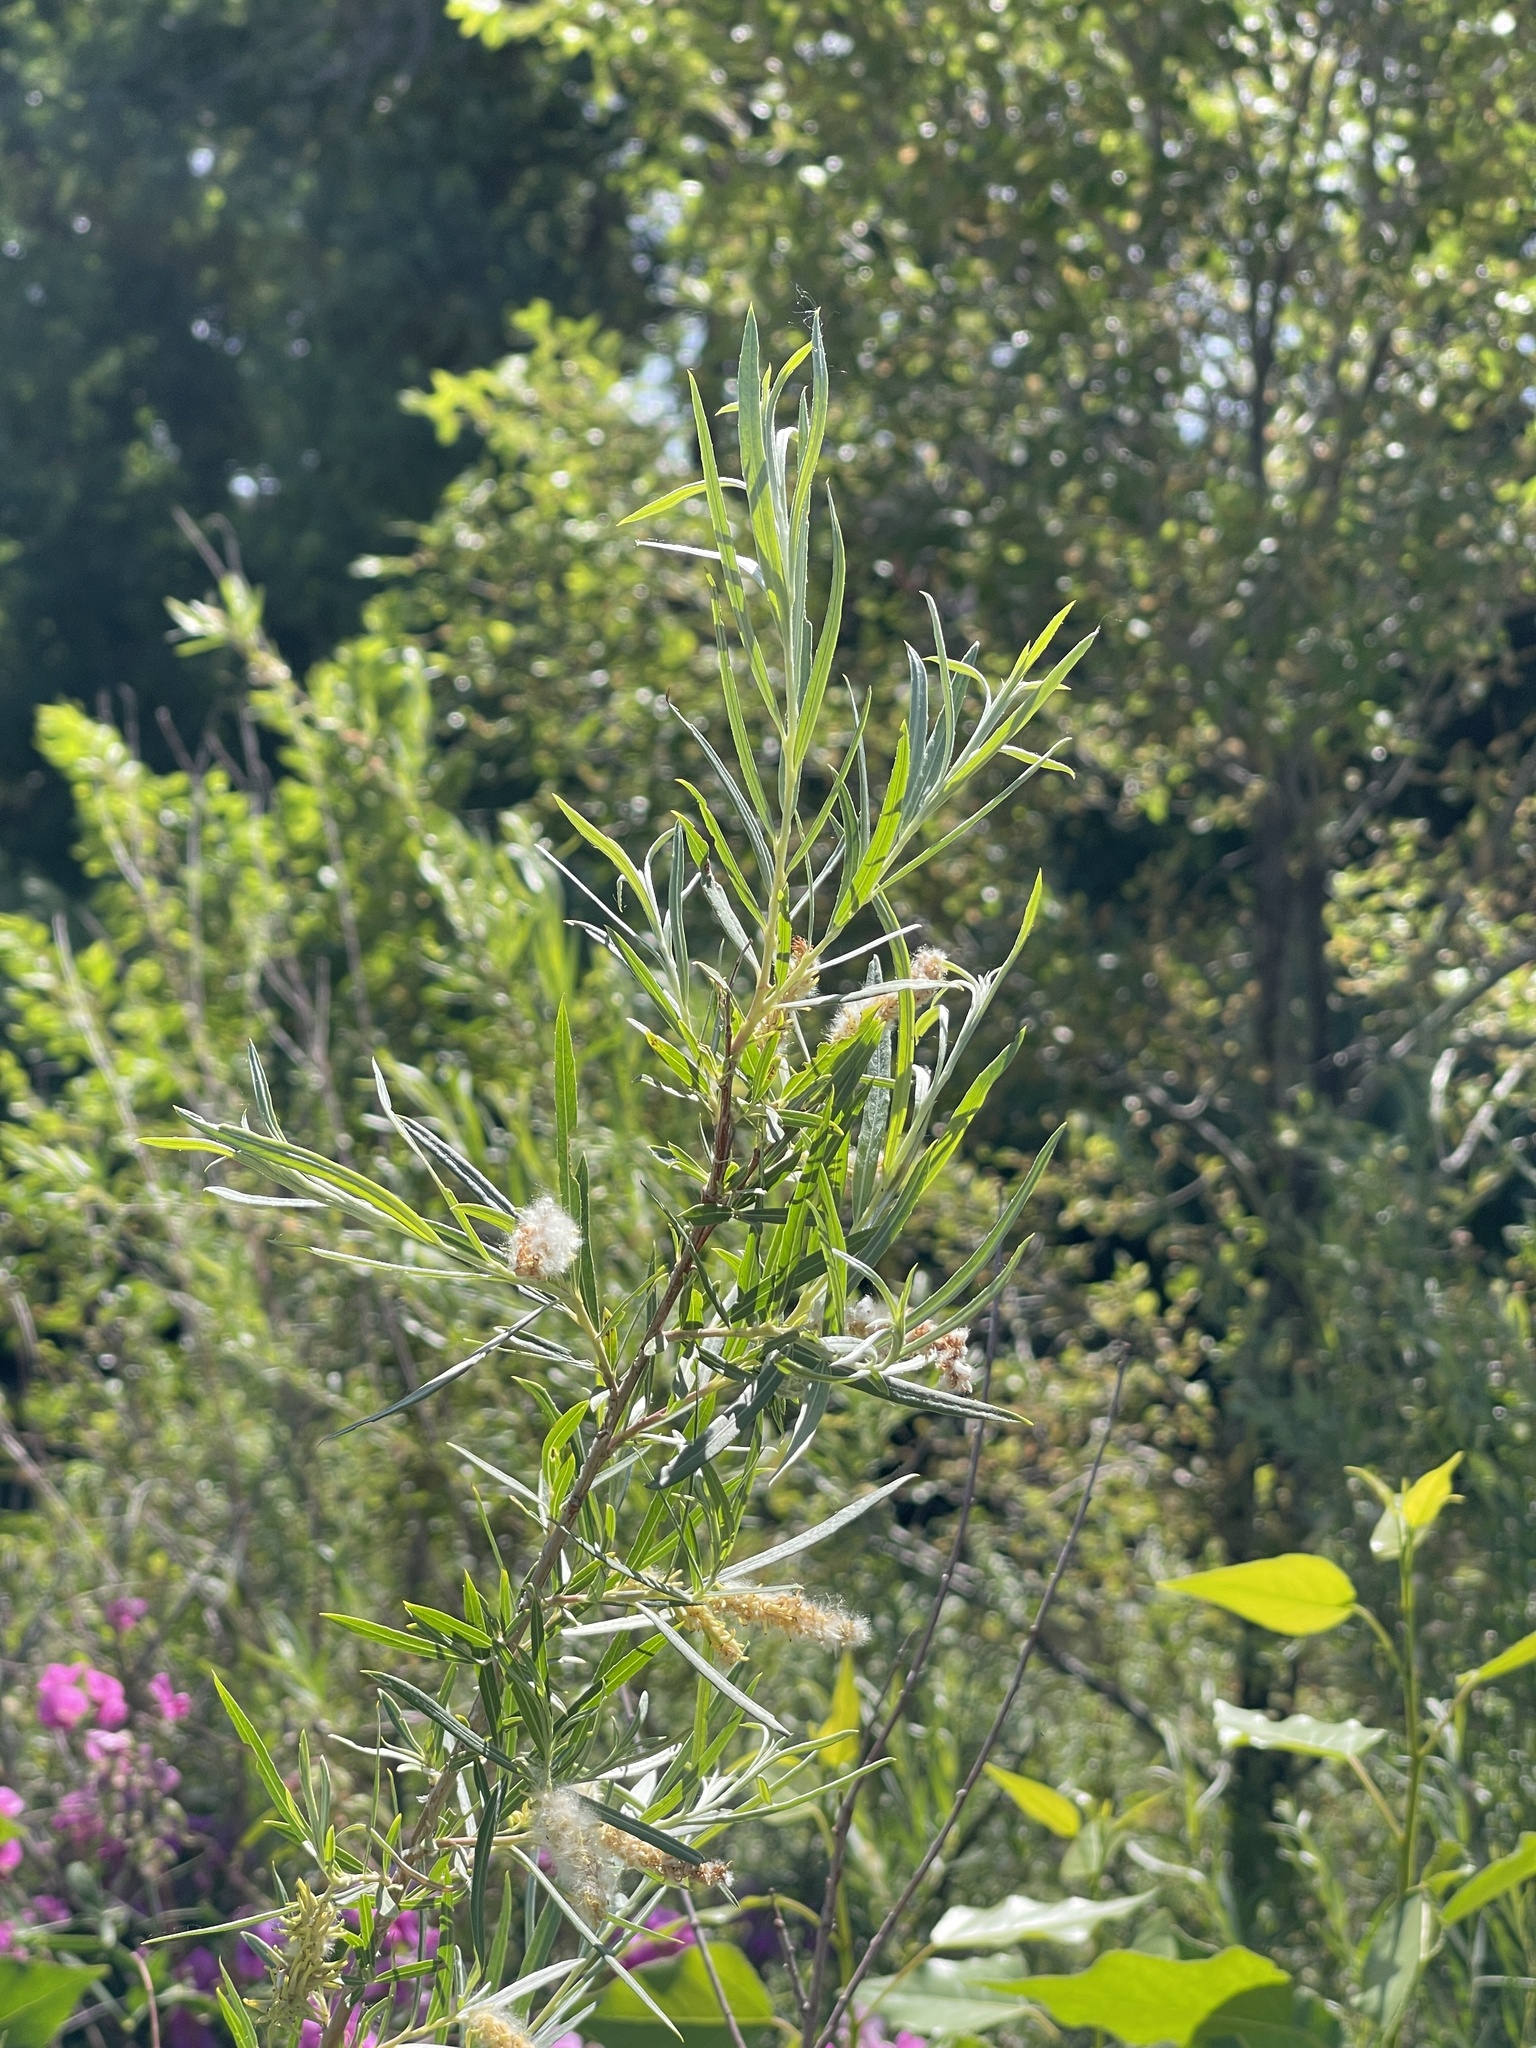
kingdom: Plantae
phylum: Tracheophyta
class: Magnoliopsida
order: Malpighiales
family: Salicaceae
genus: Salix
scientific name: Salix exigua
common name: Coyote willow
